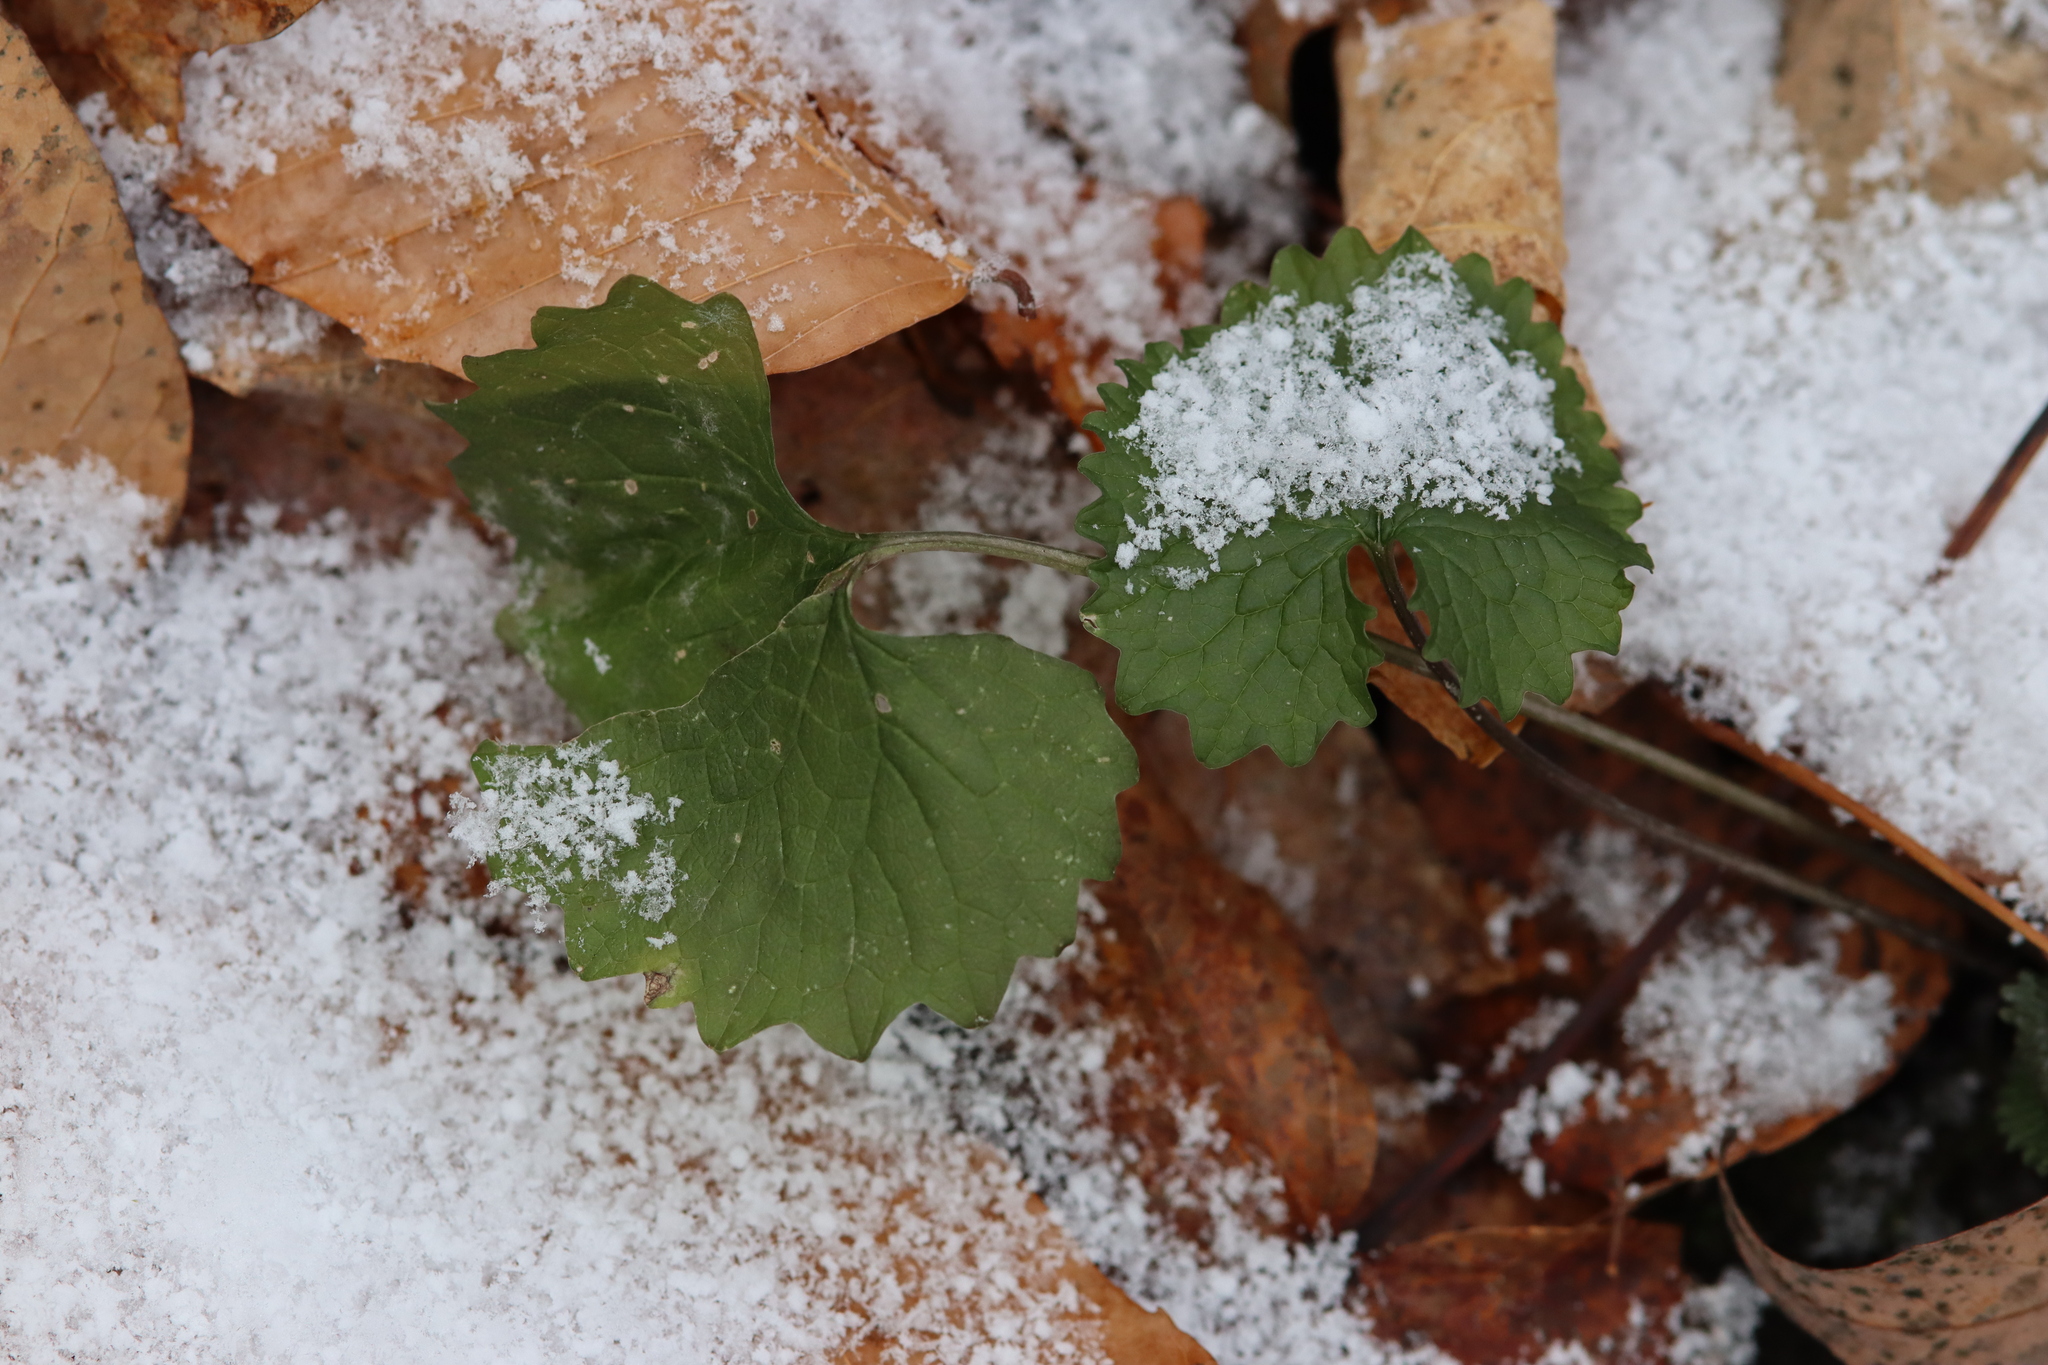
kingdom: Plantae
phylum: Tracheophyta
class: Magnoliopsida
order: Brassicales
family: Brassicaceae
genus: Alliaria
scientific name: Alliaria petiolata
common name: Garlic mustard
